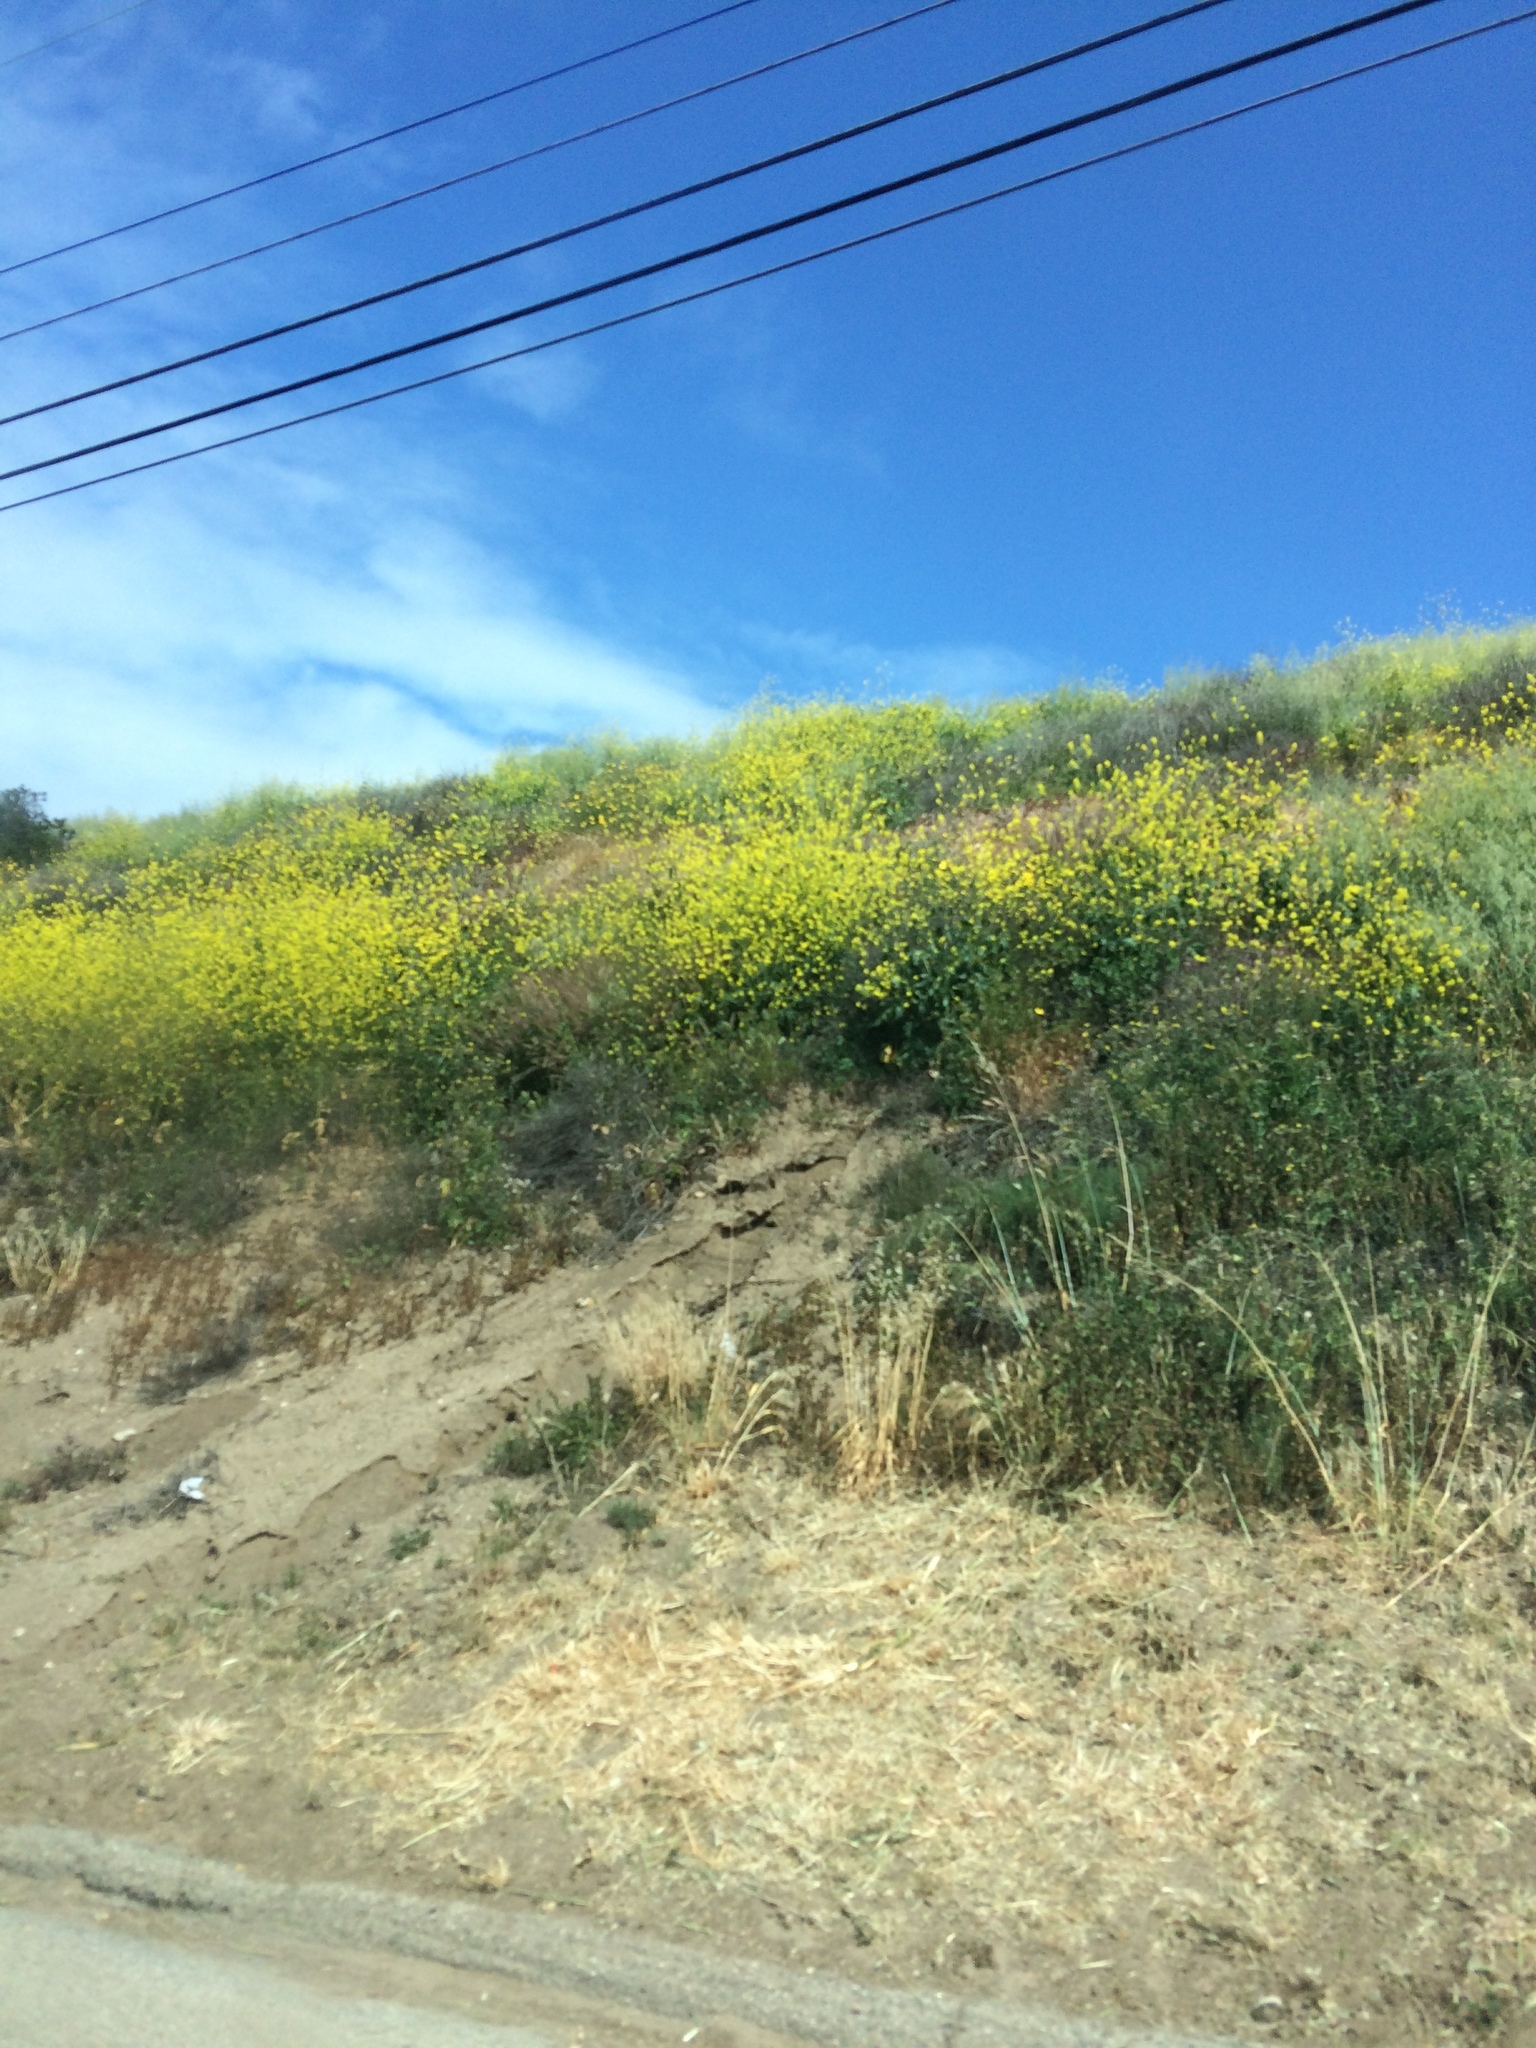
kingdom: Plantae
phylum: Tracheophyta
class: Magnoliopsida
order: Brassicales
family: Brassicaceae
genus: Brassica
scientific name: Brassica nigra
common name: Black mustard
